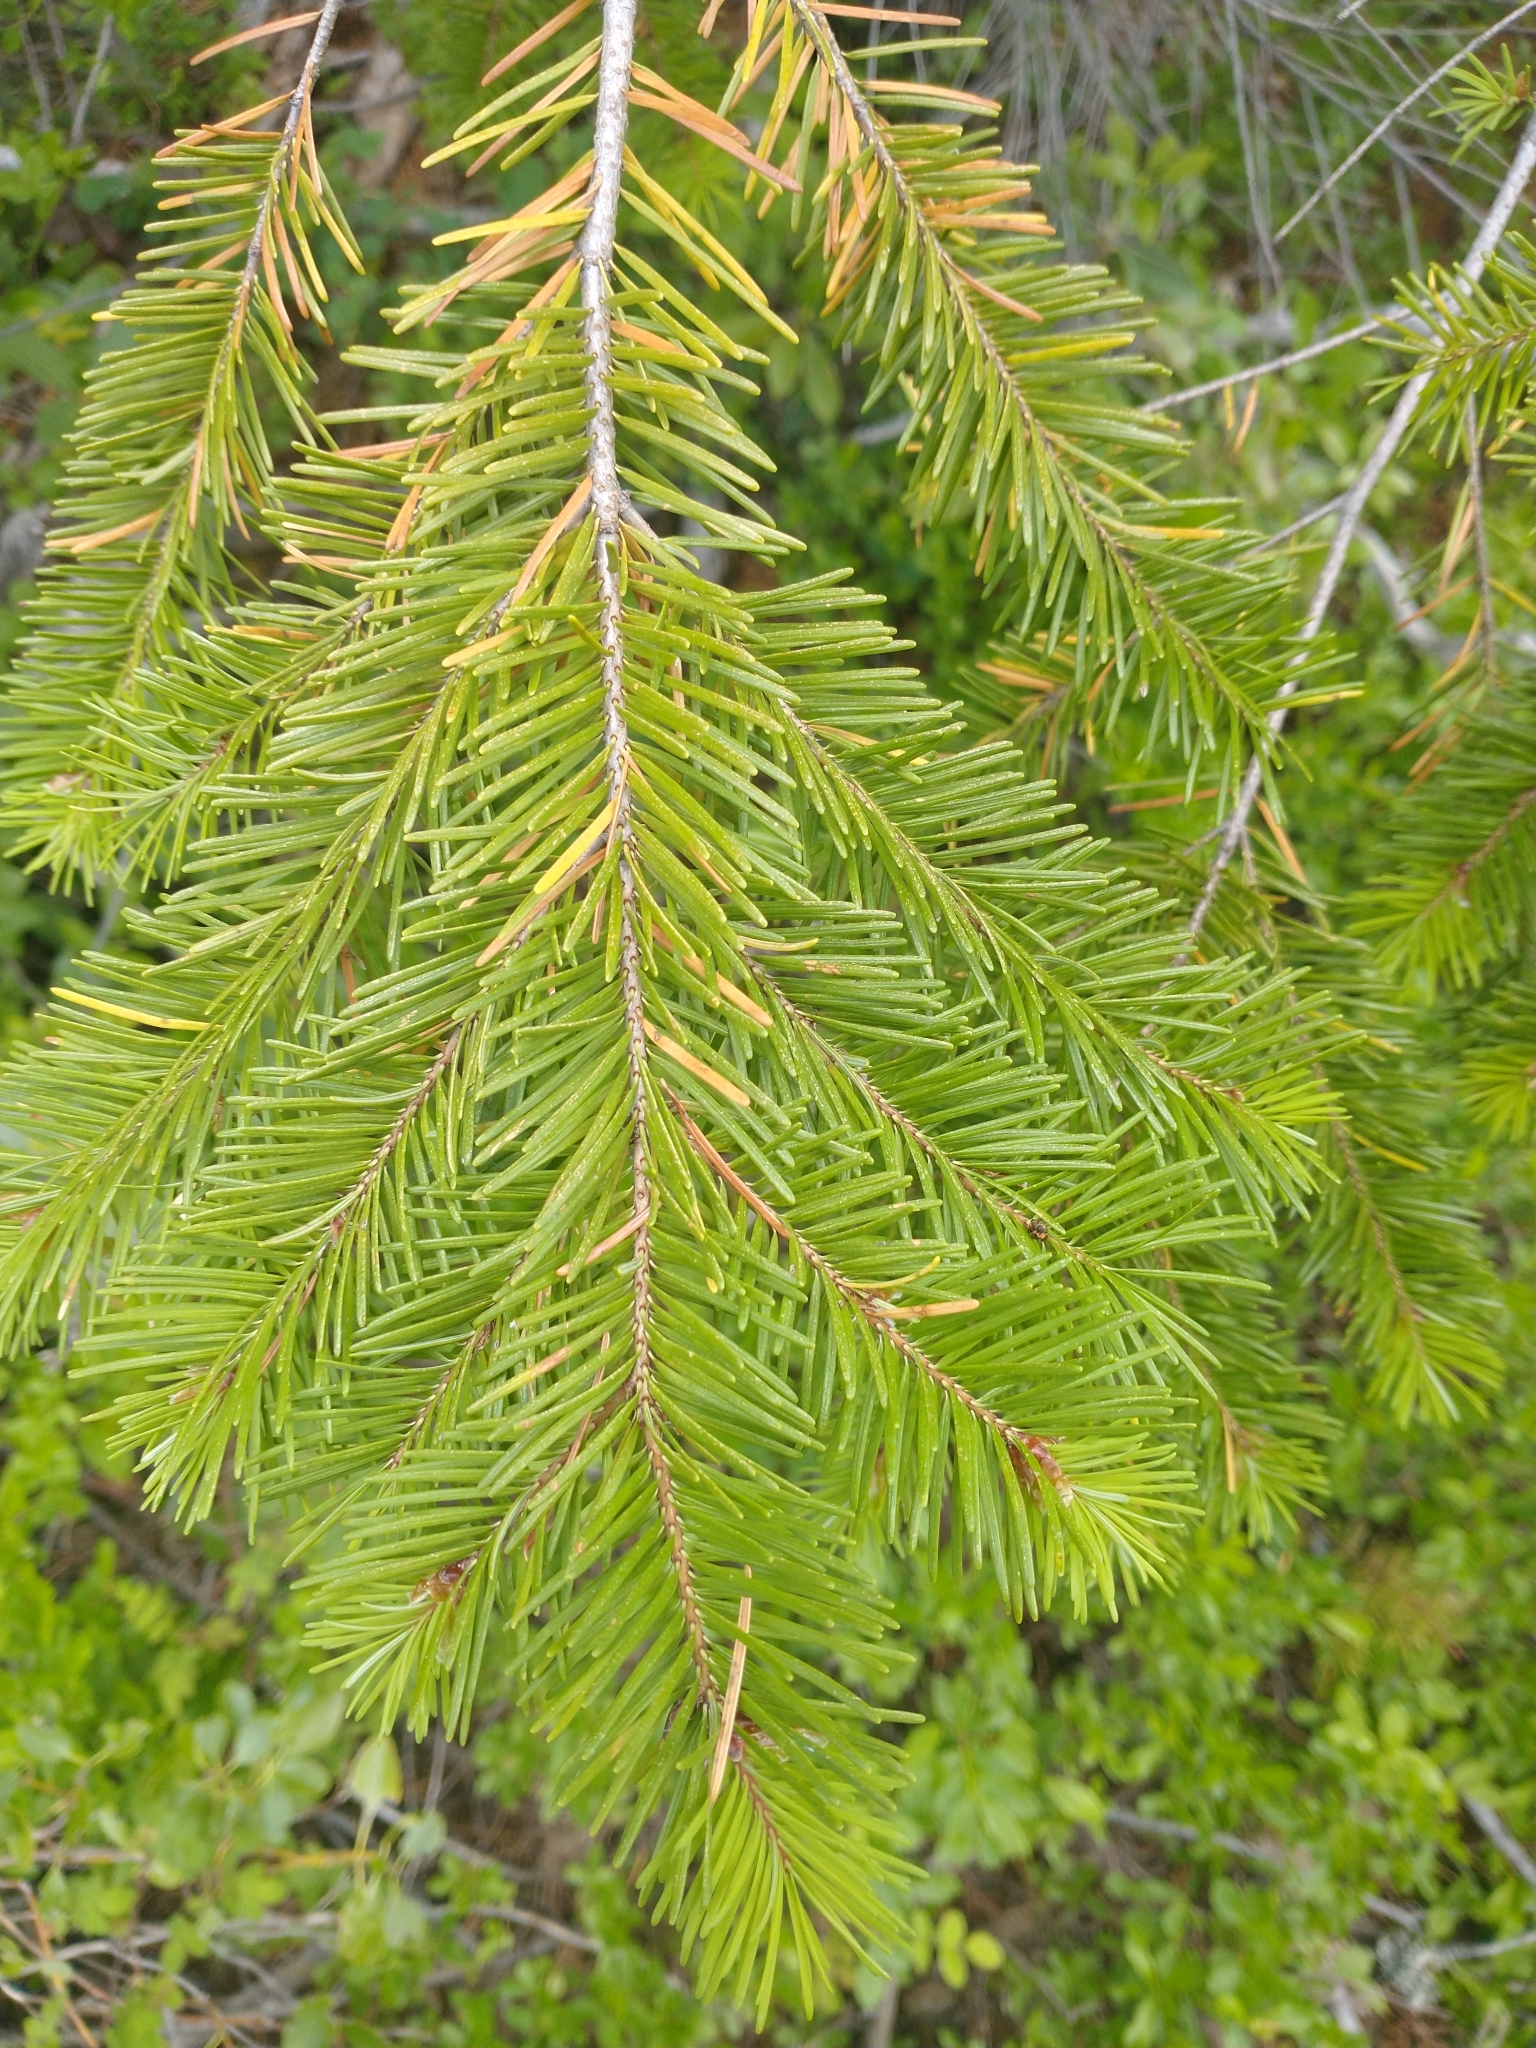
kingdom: Plantae
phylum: Tracheophyta
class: Pinopsida
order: Pinales
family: Pinaceae
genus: Pseudotsuga
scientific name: Pseudotsuga menziesii
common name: Douglas fir
